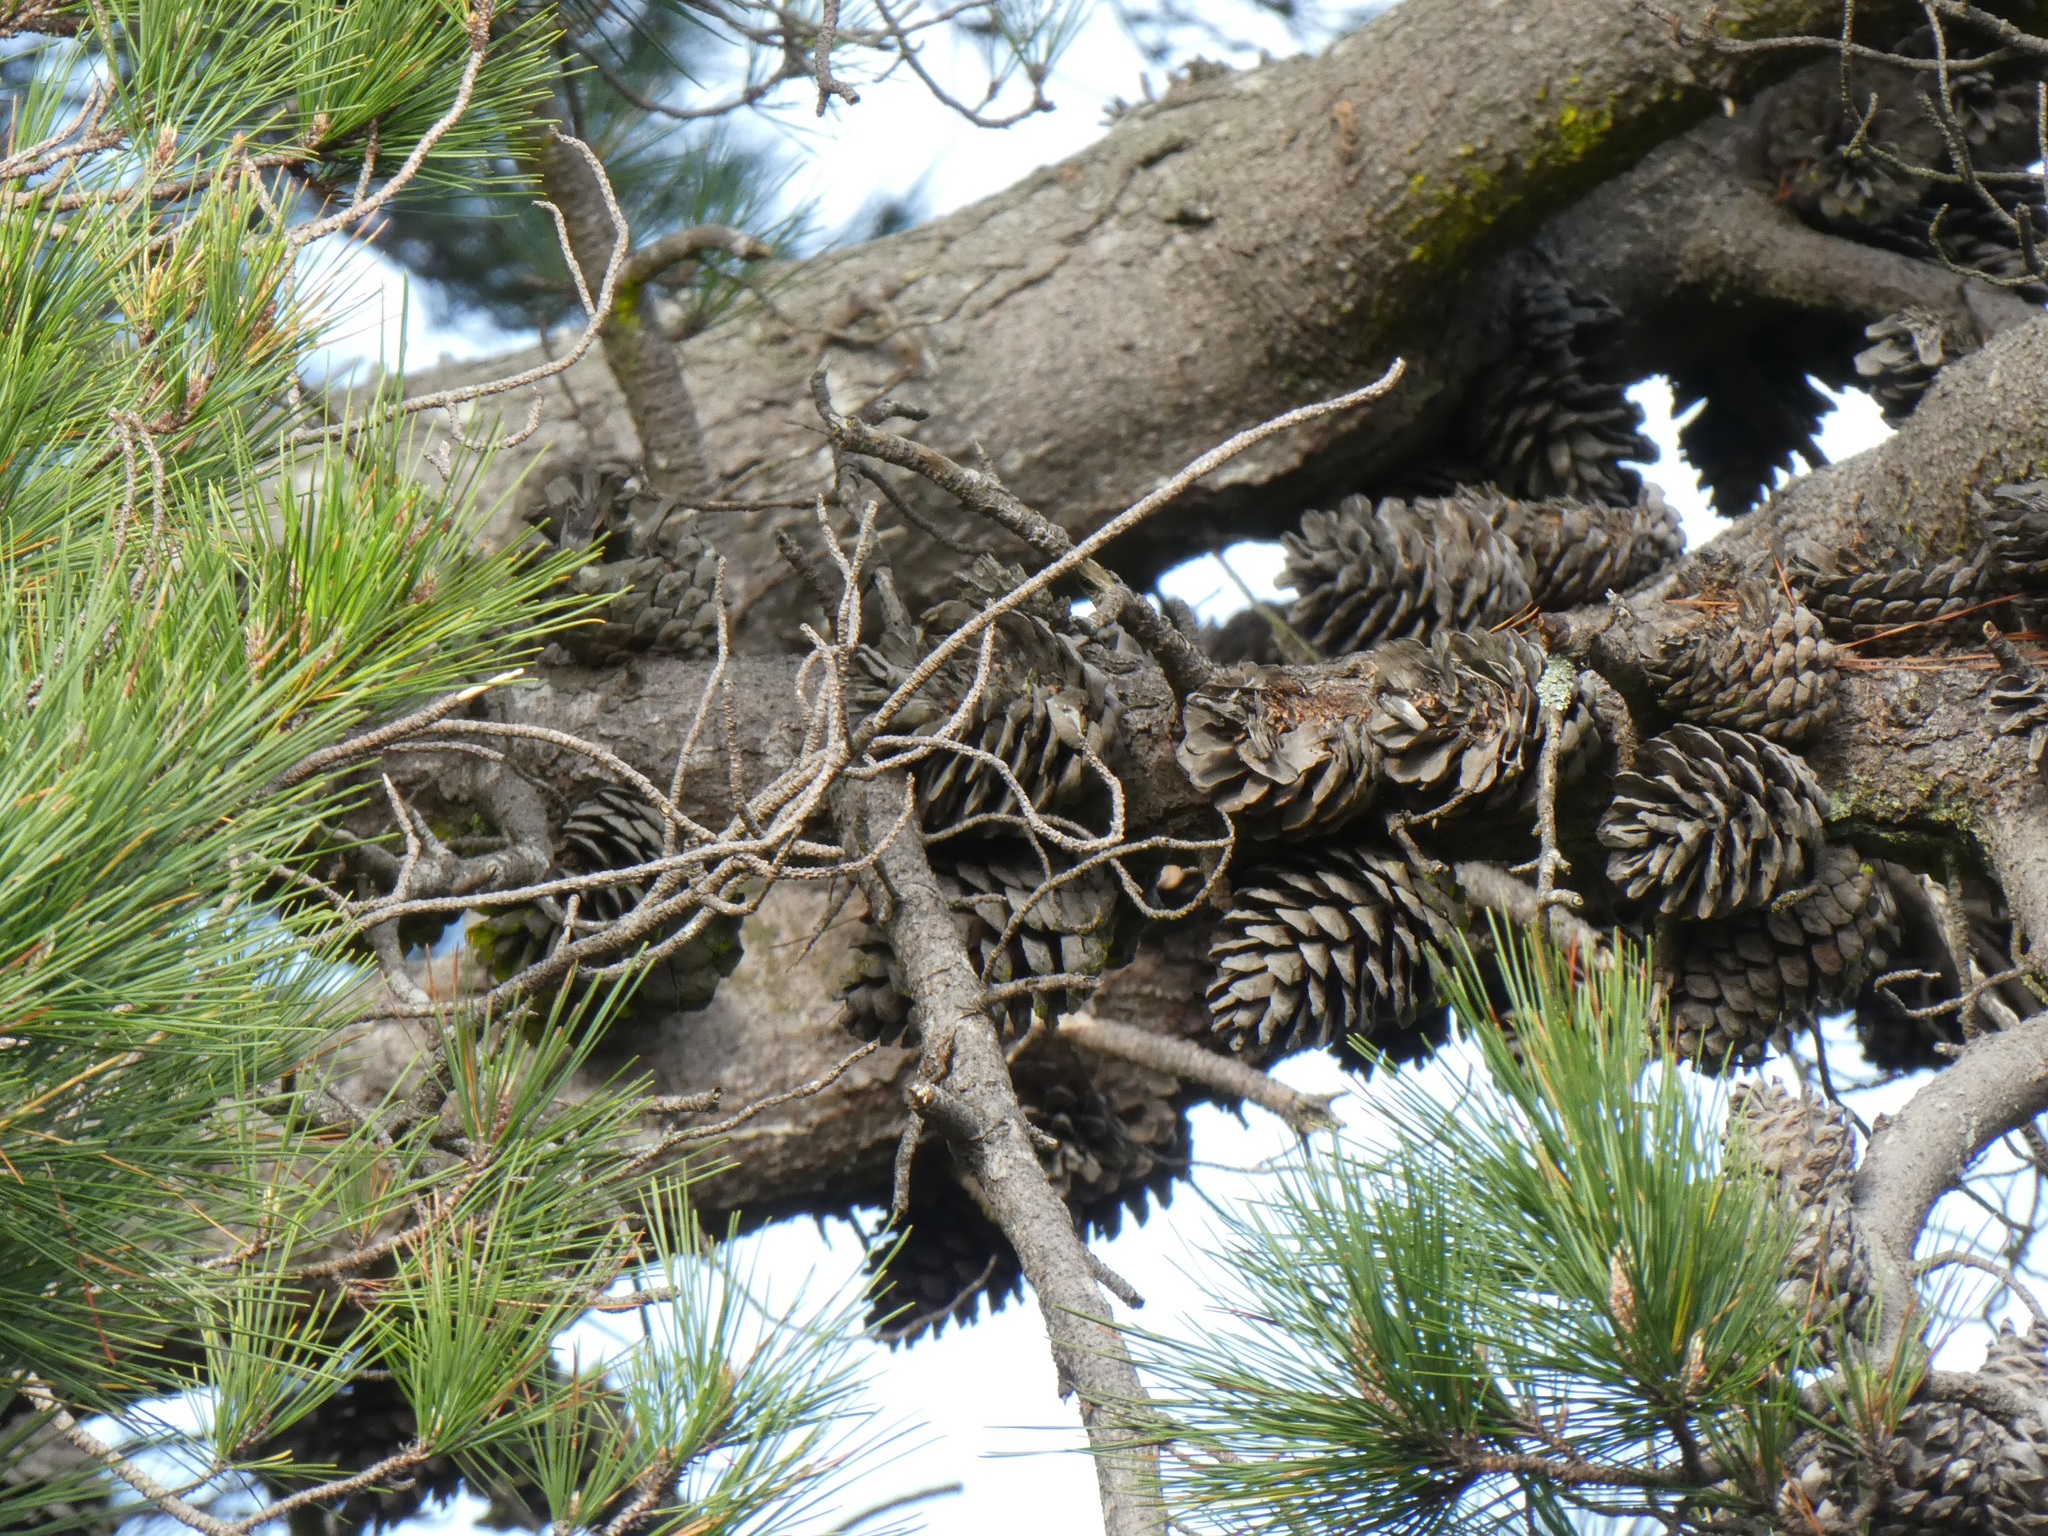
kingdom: Plantae
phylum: Tracheophyta
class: Pinopsida
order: Pinales
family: Pinaceae
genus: Pinus
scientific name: Pinus radiata
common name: Monterey pine
